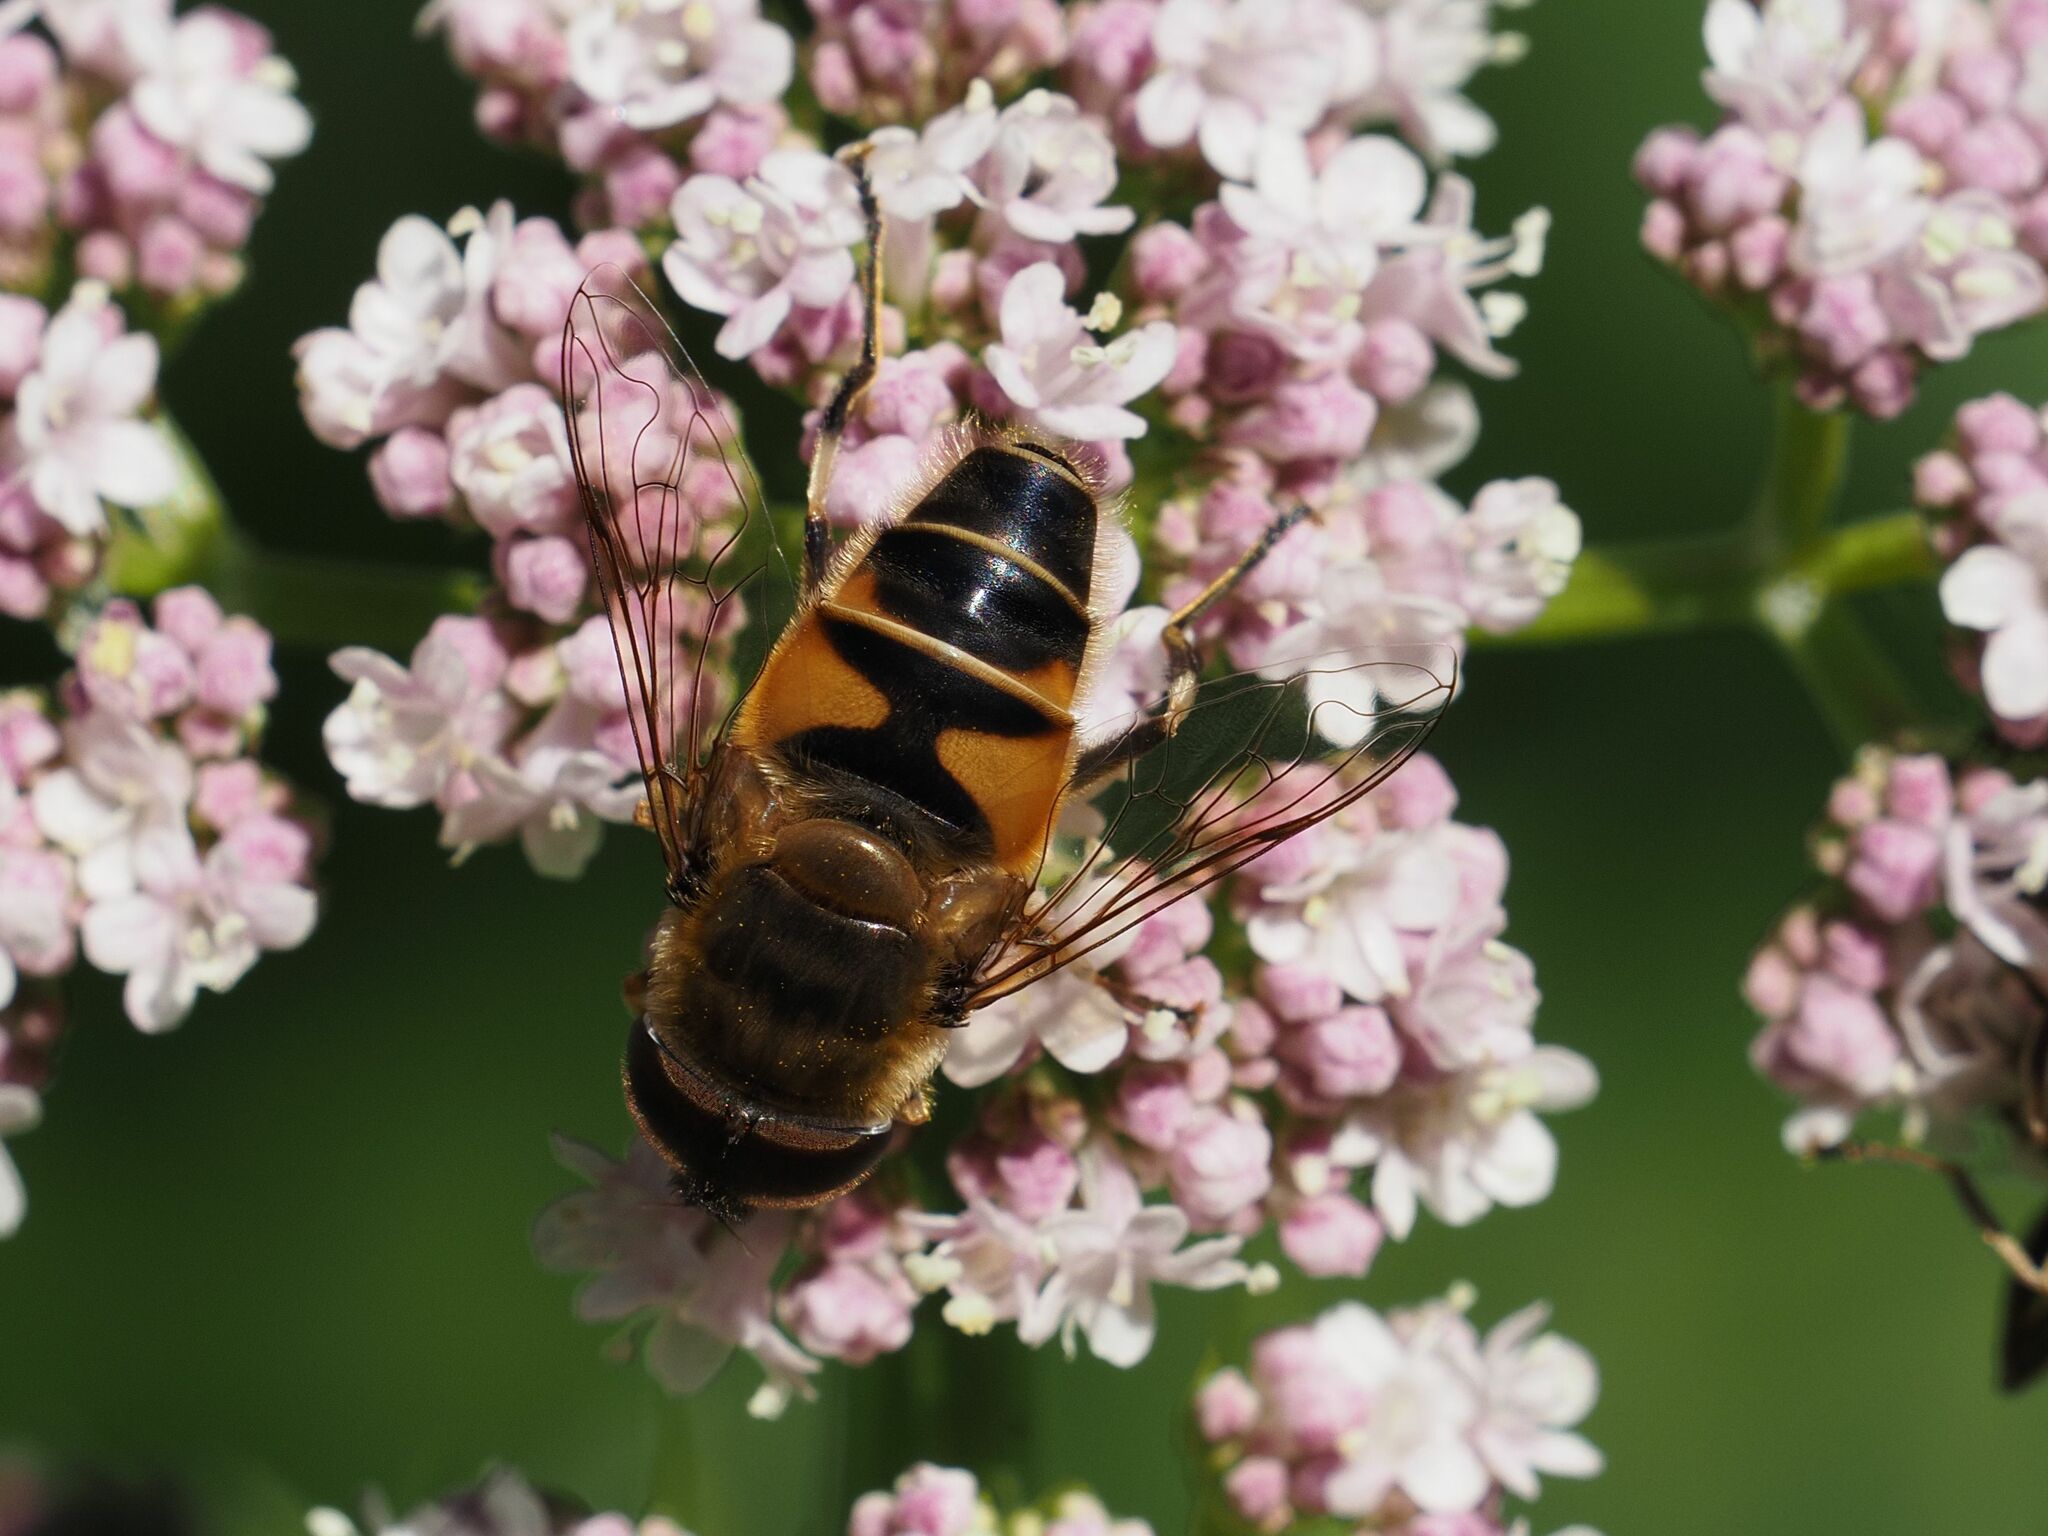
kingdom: Animalia
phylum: Arthropoda
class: Insecta
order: Diptera
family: Syrphidae
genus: Eristalis
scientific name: Eristalis pertinax
